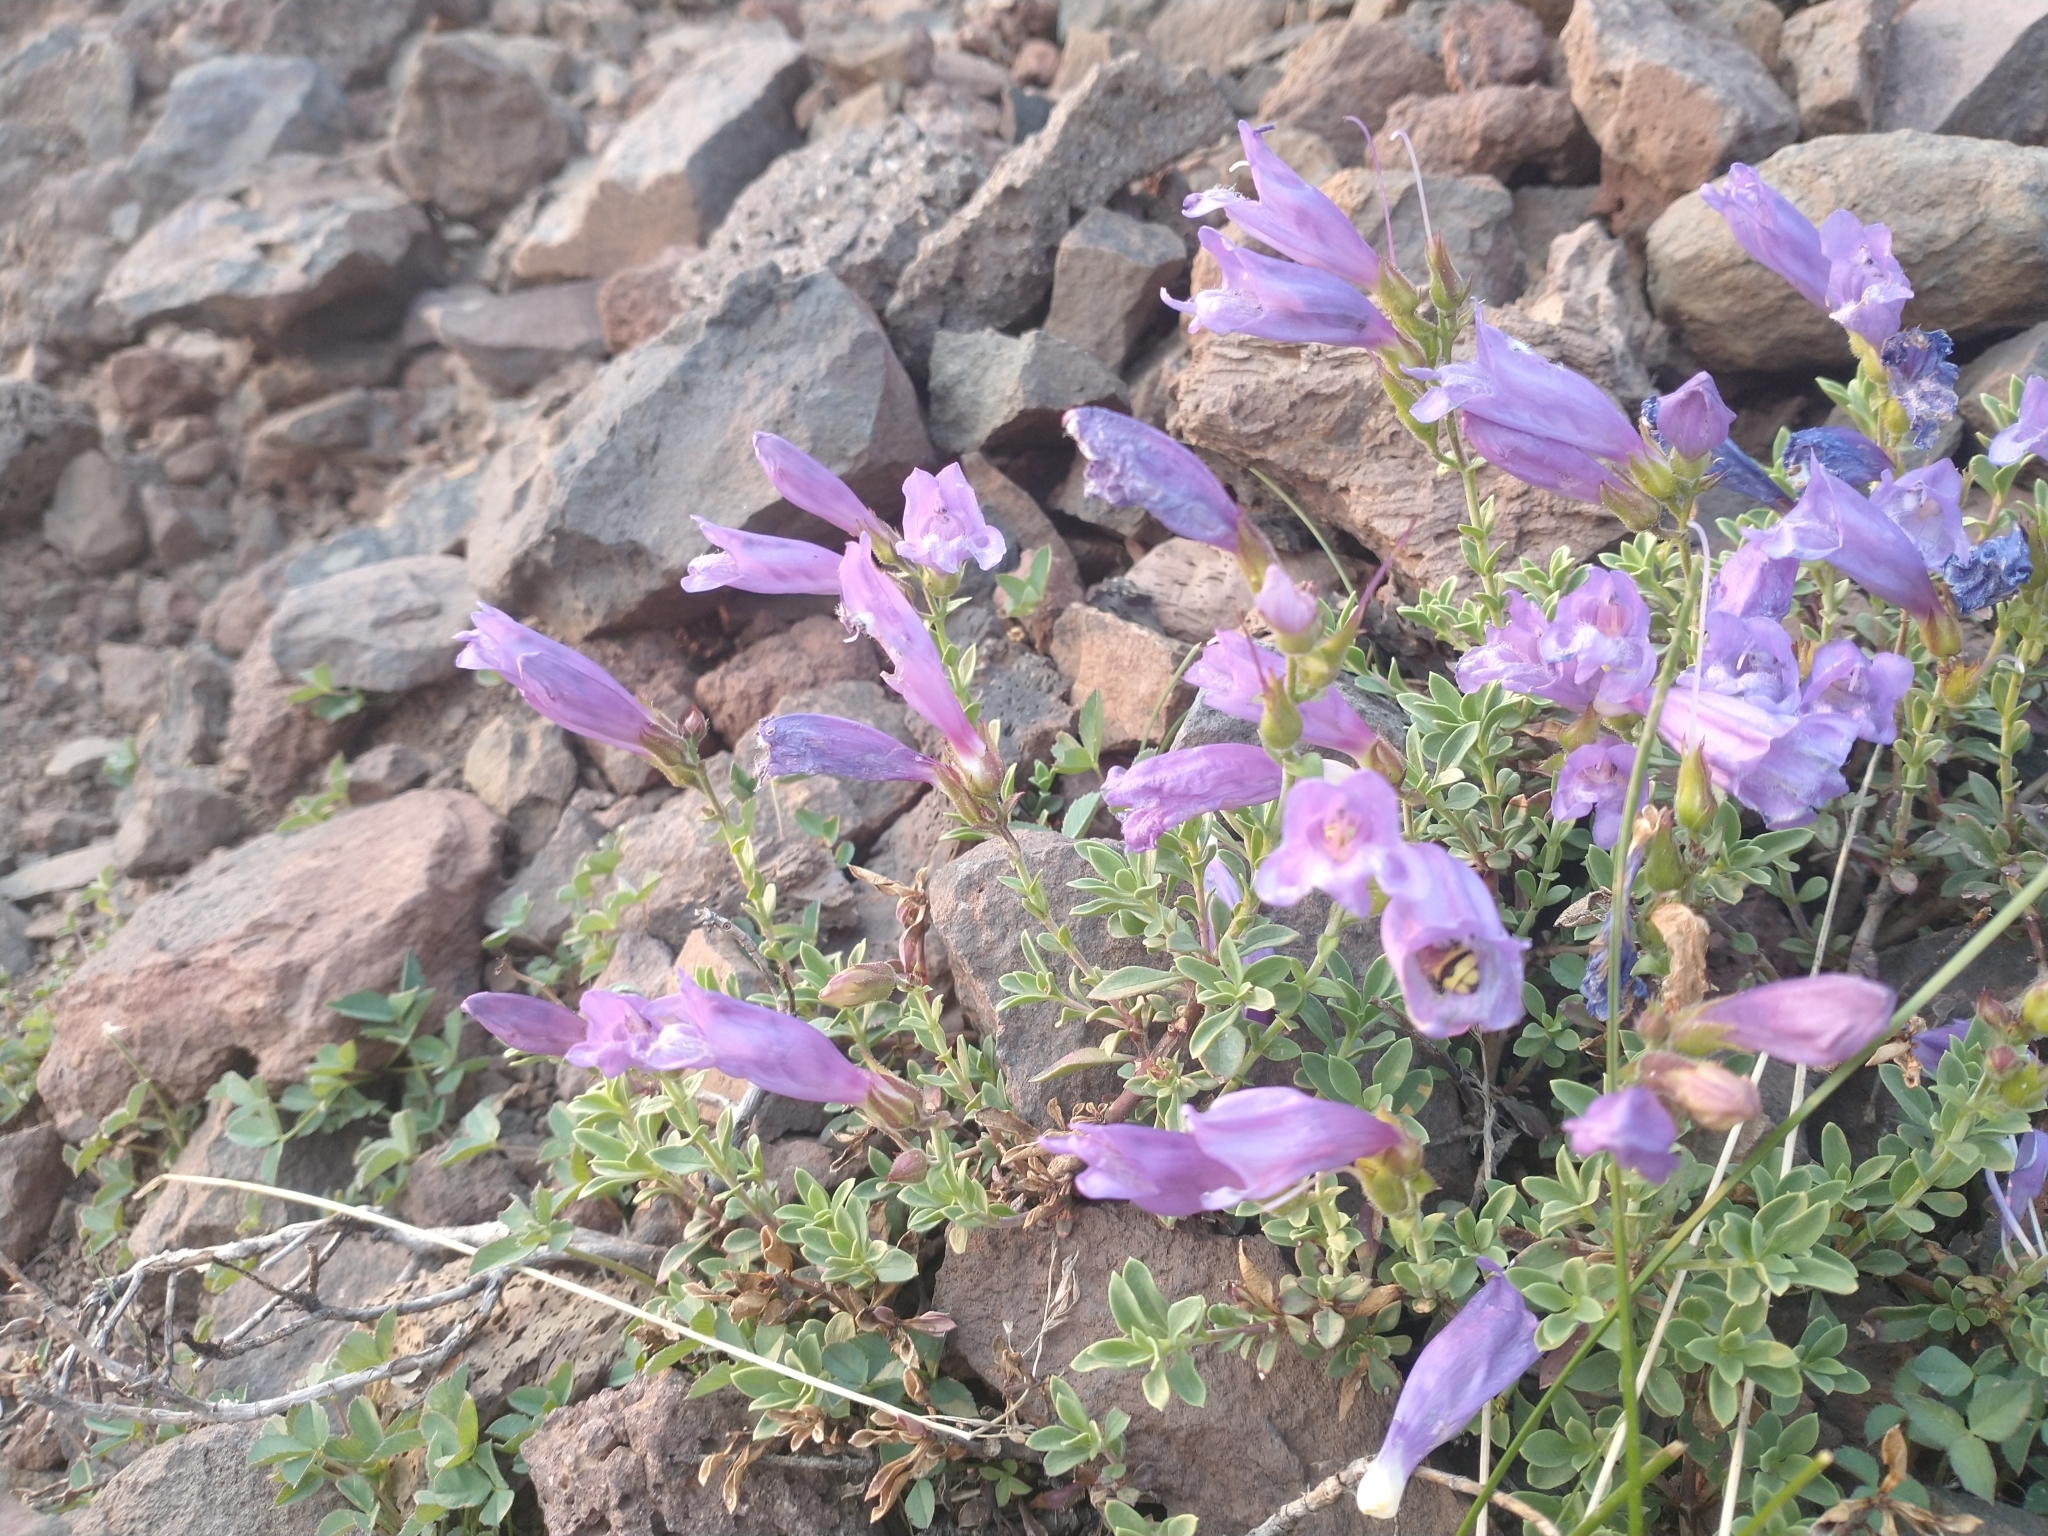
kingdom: Plantae
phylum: Tracheophyta
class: Magnoliopsida
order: Lamiales
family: Plantaginaceae
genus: Penstemon
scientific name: Penstemon davidsonii
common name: Davidson's penstemon
